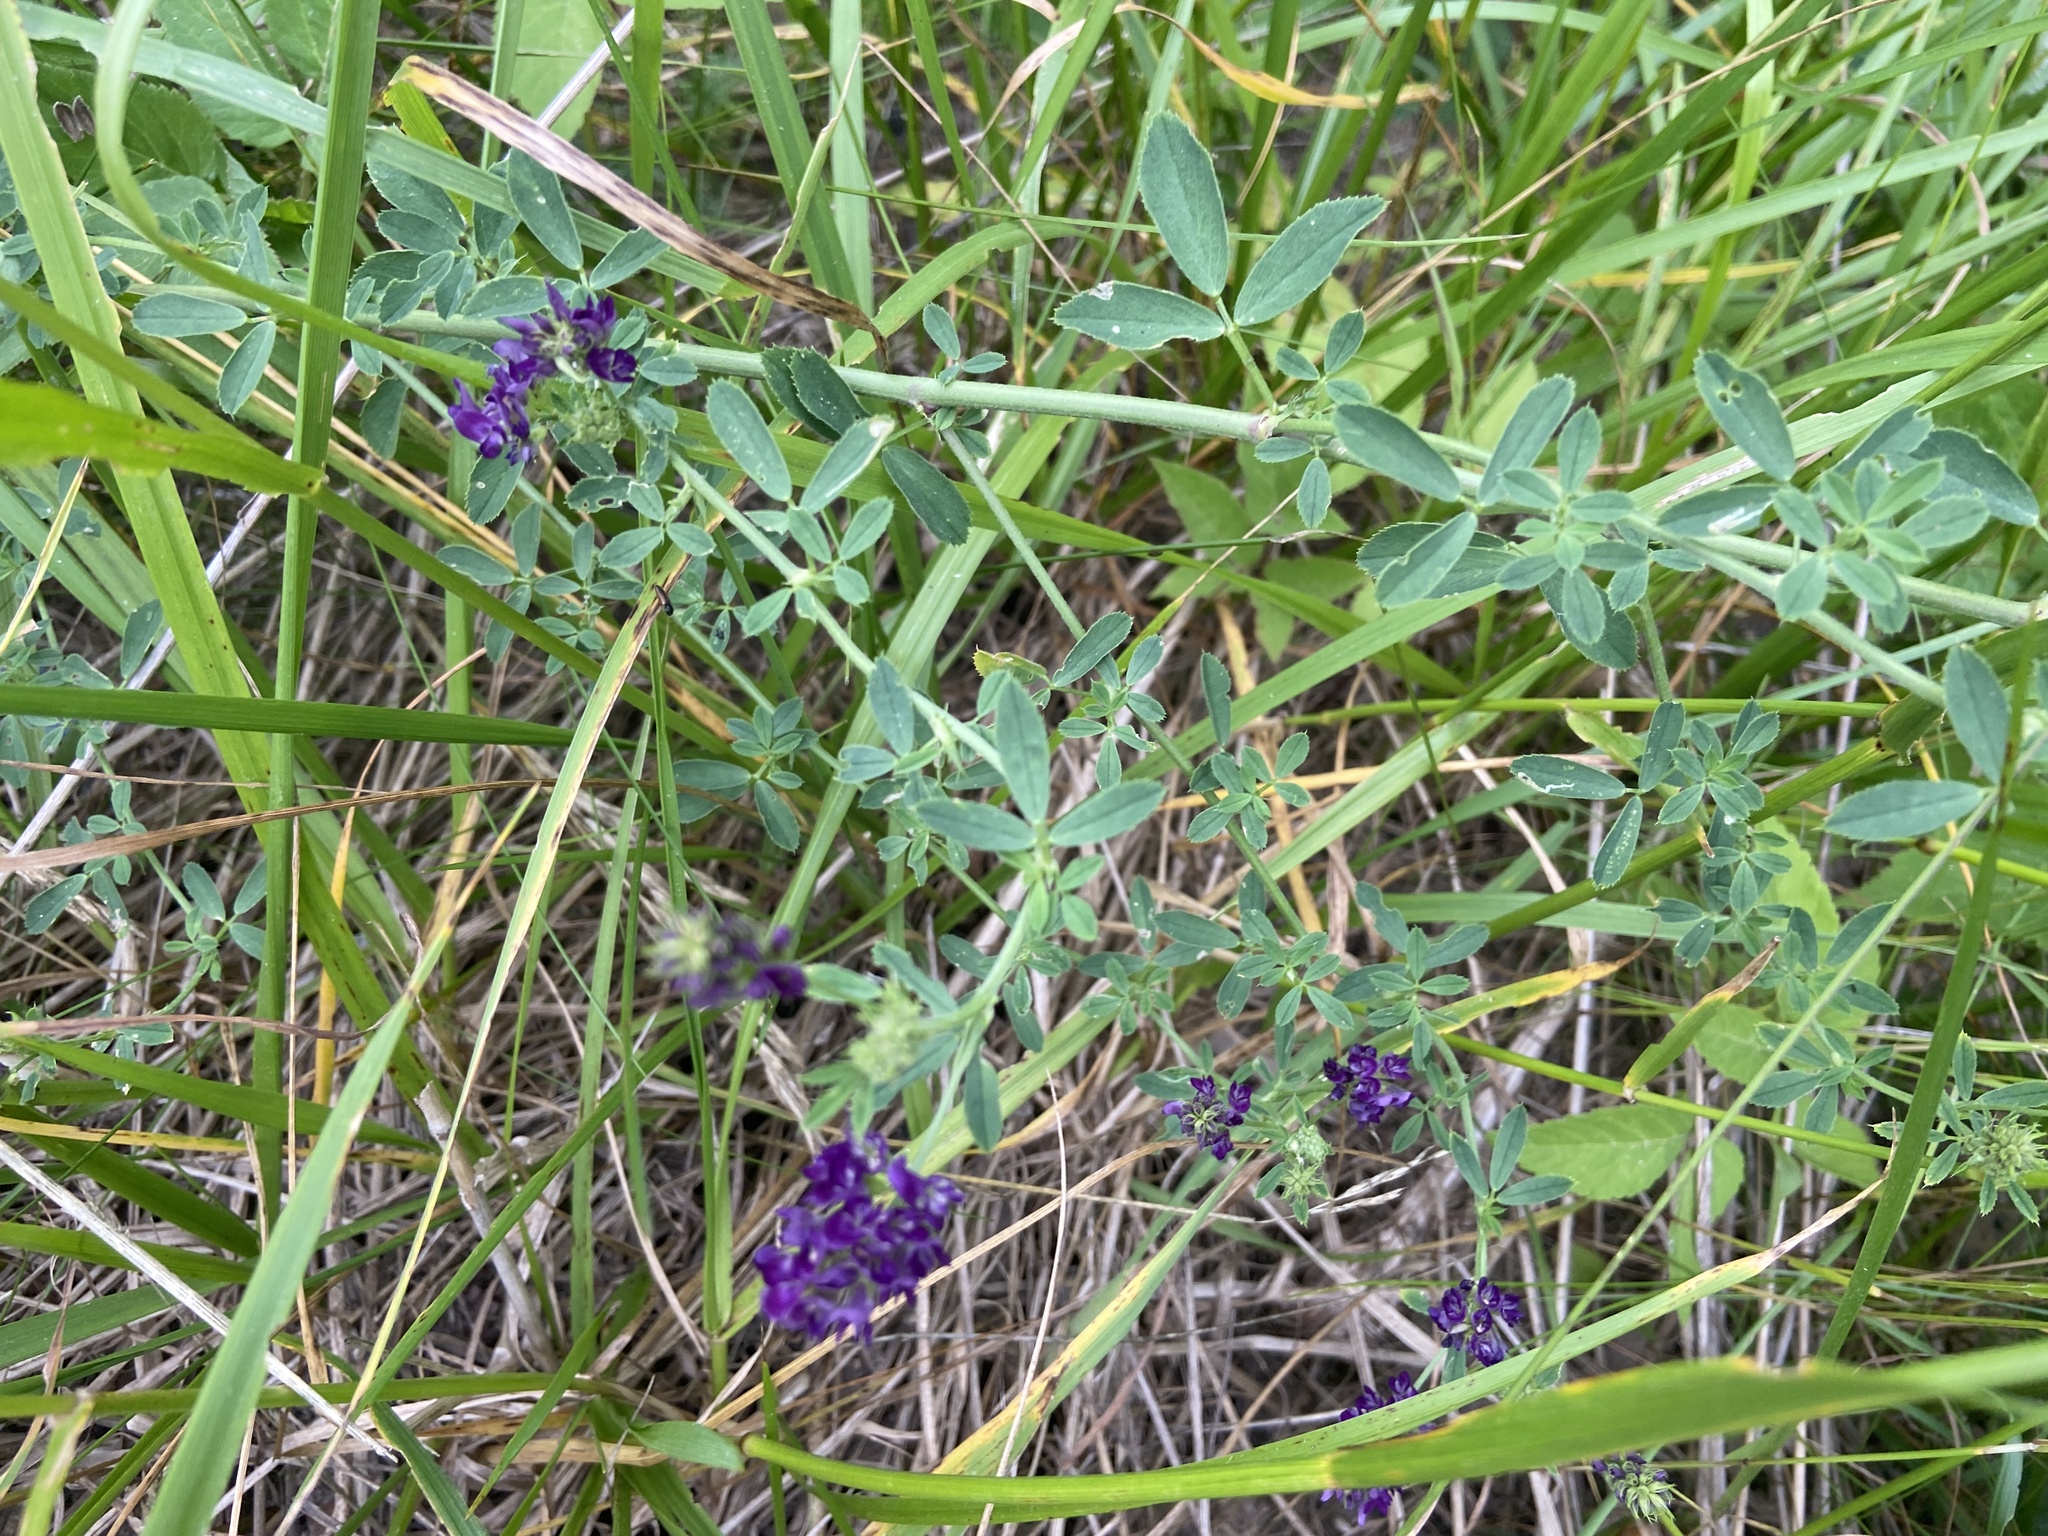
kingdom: Plantae
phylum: Tracheophyta
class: Magnoliopsida
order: Fabales
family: Fabaceae
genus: Medicago
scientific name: Medicago varia
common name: Sand lucerne
